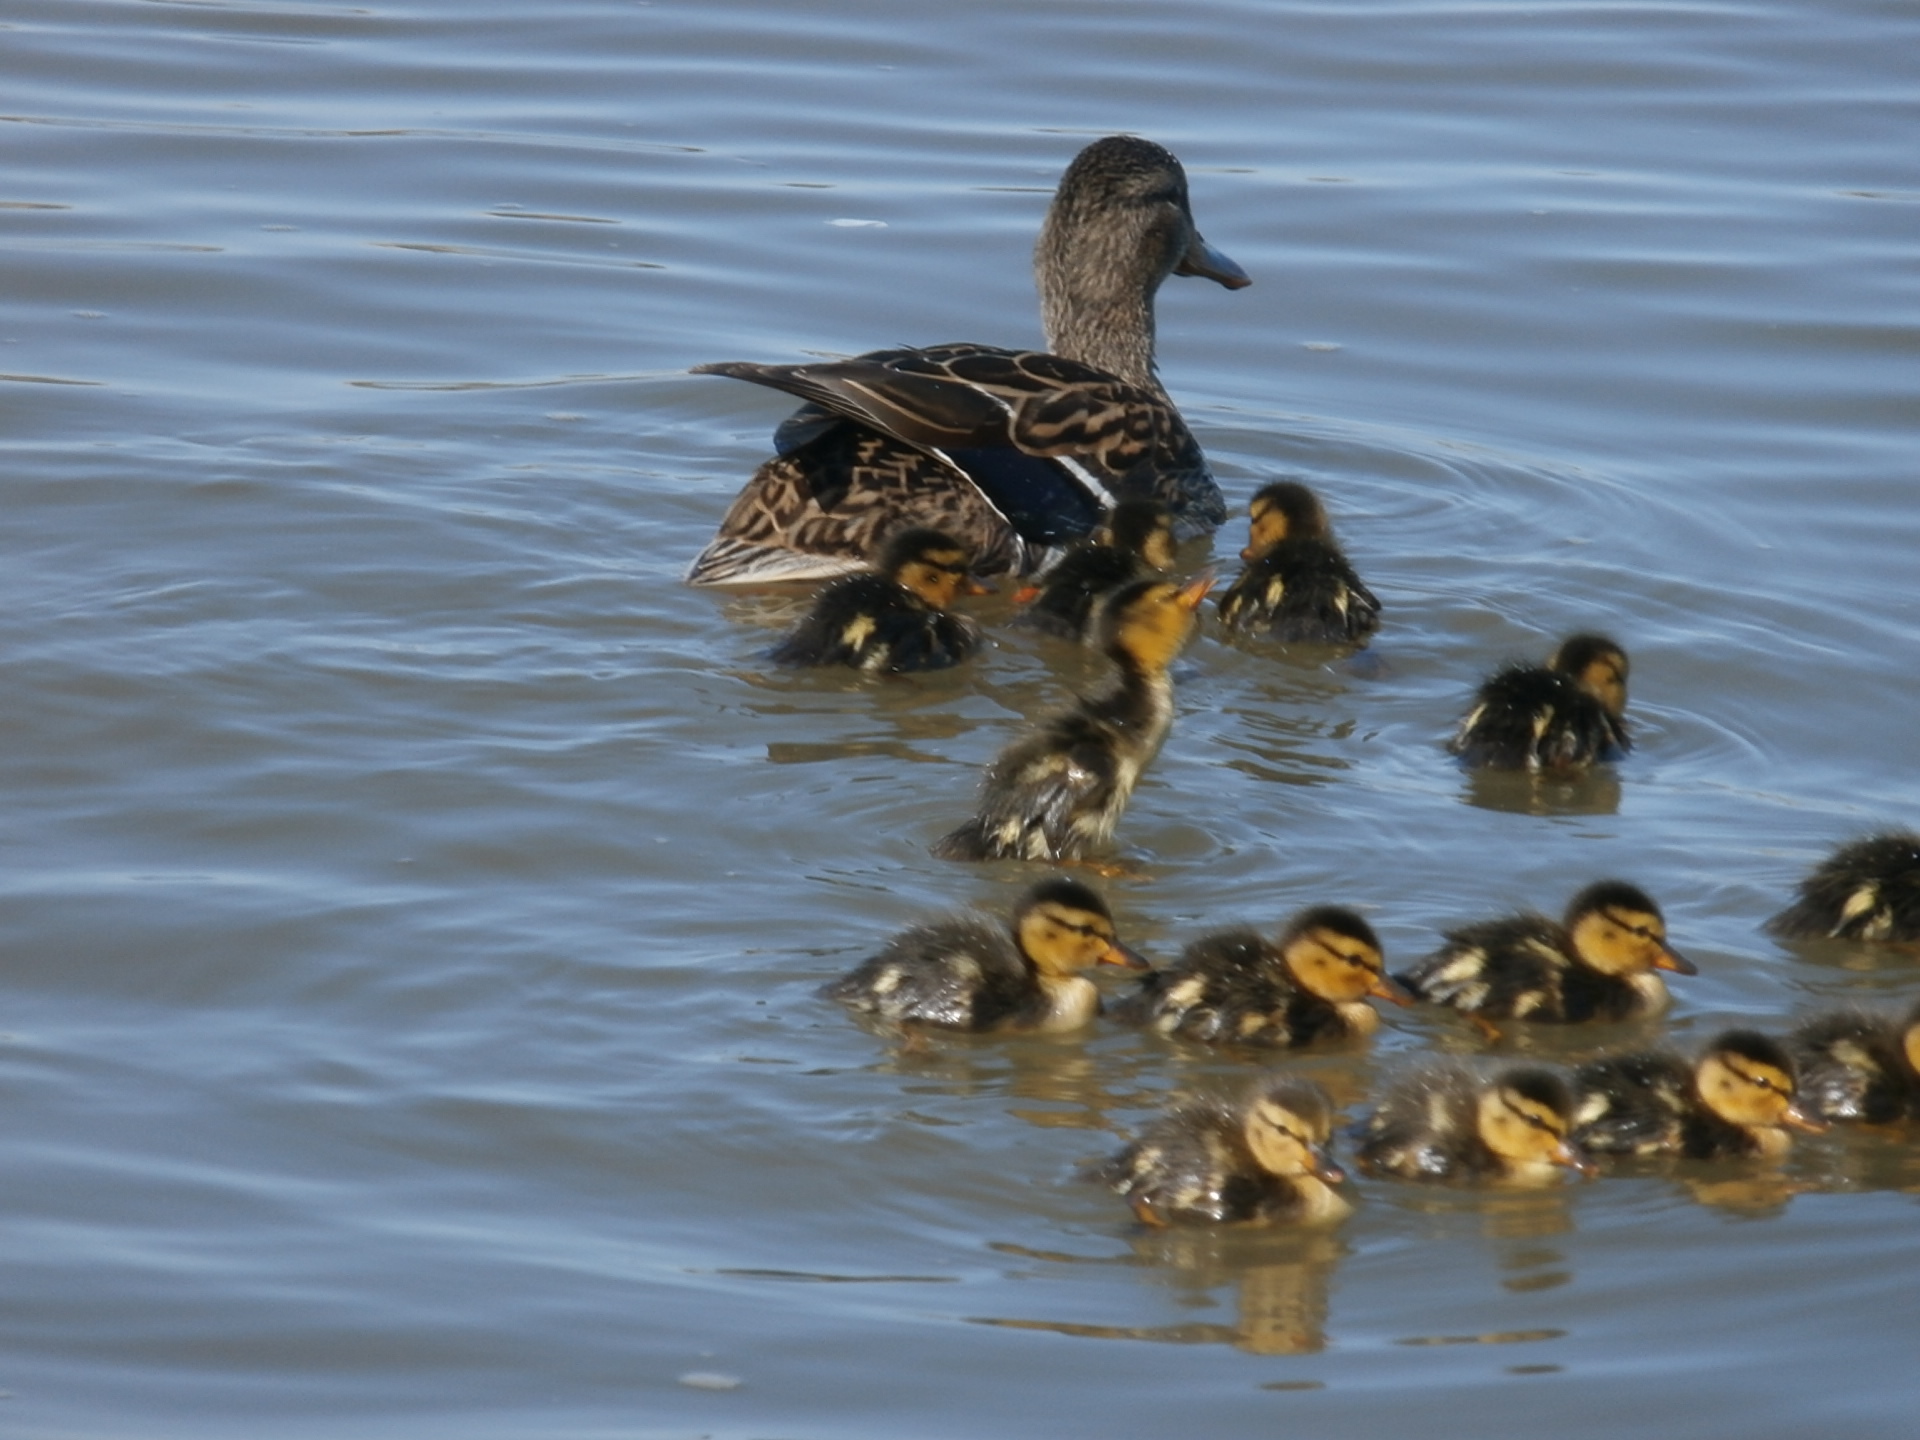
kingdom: Animalia
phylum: Chordata
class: Aves
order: Anseriformes
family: Anatidae
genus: Anas
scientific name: Anas platyrhynchos
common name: Mallard
